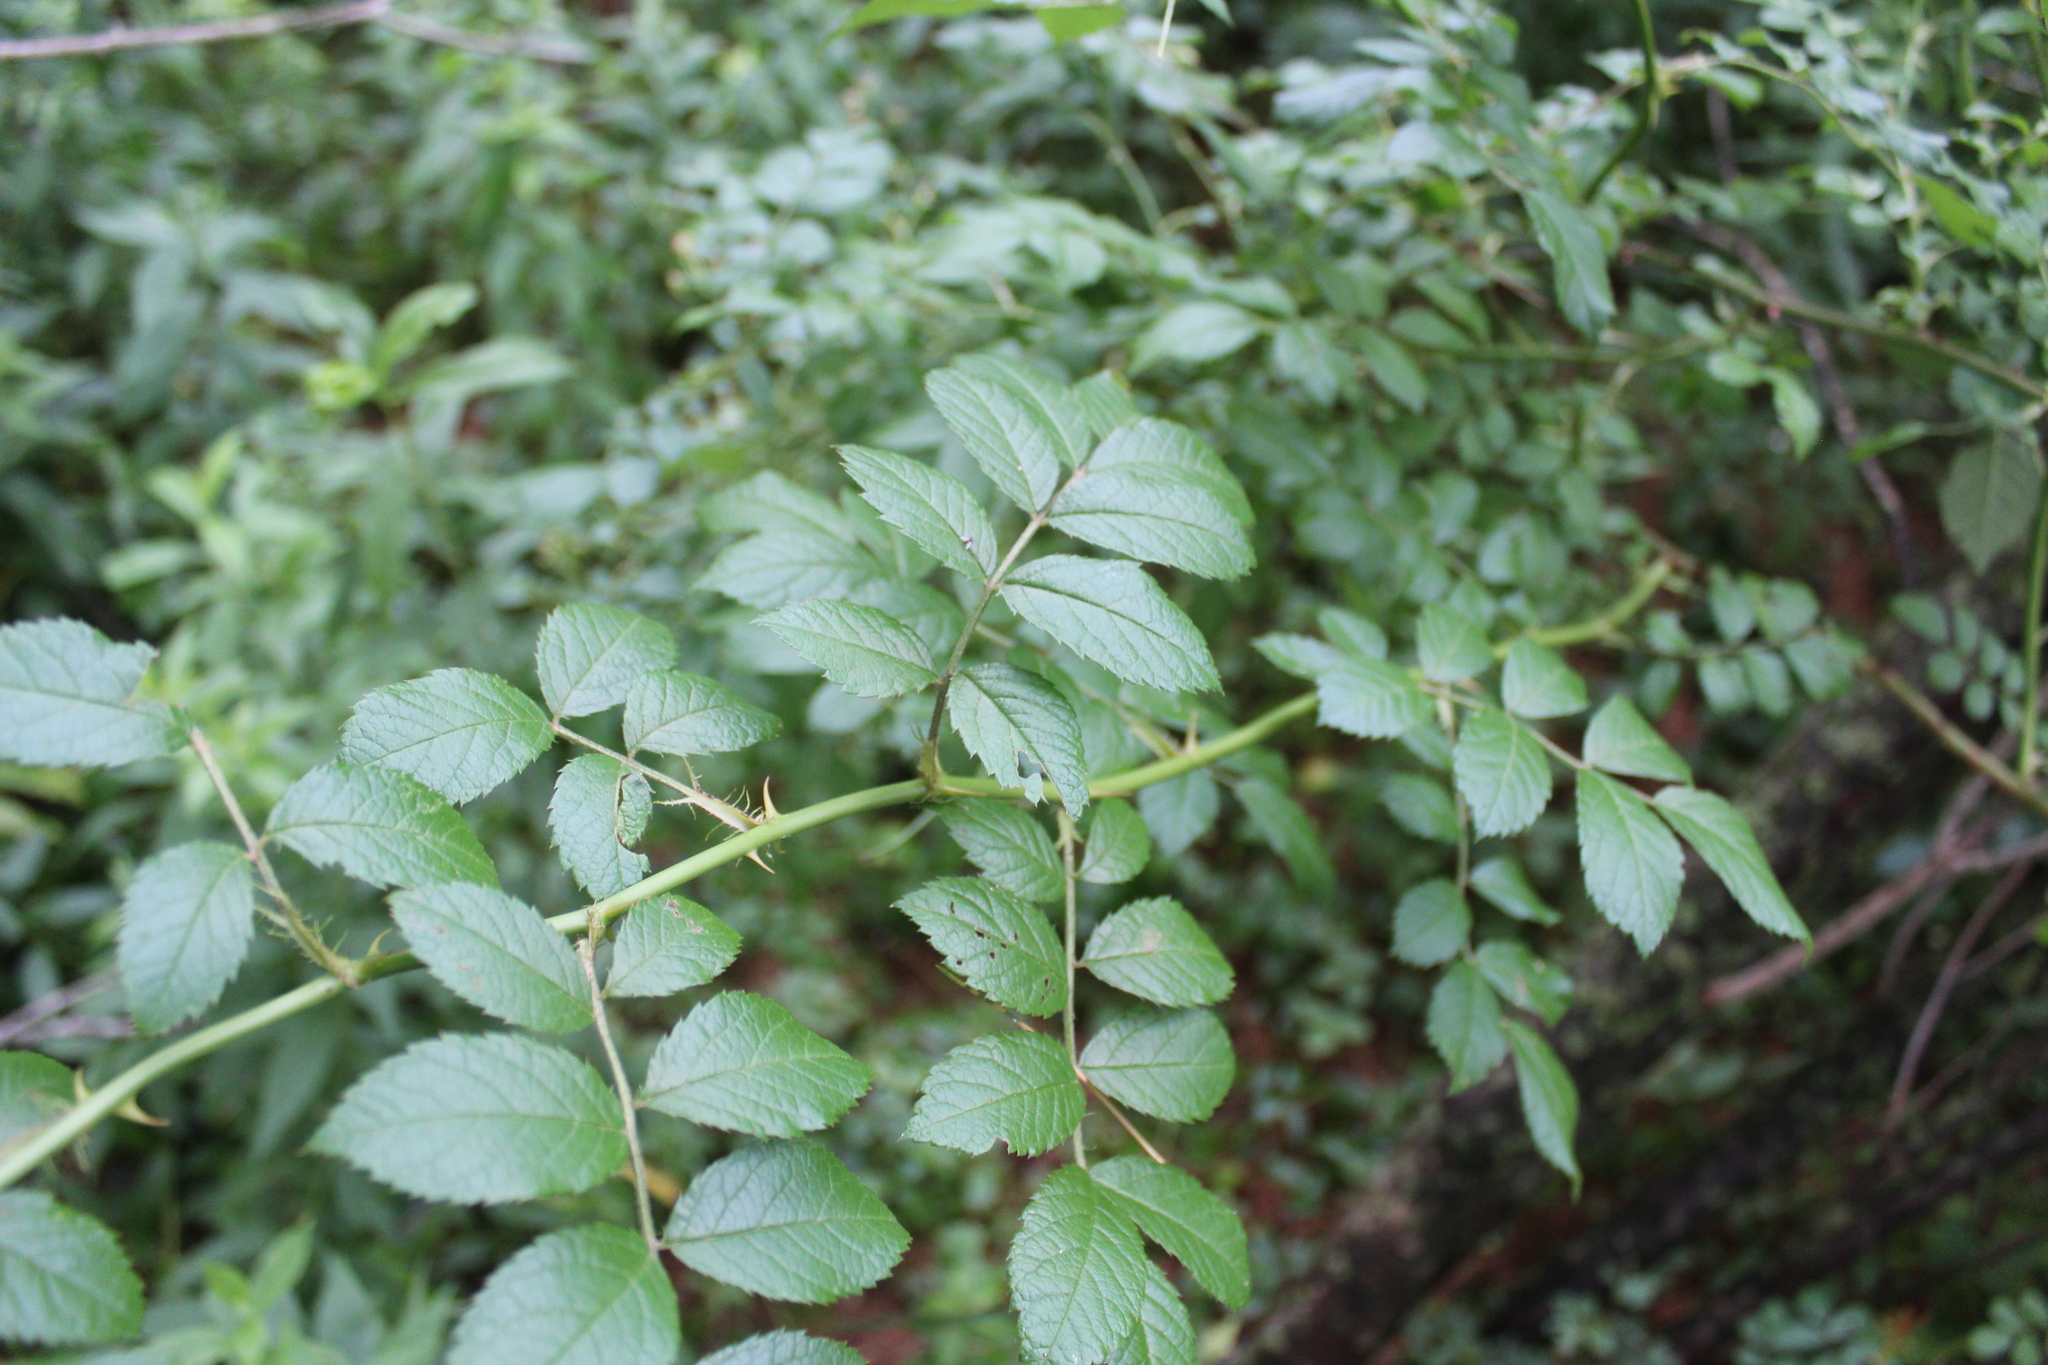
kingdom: Plantae
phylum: Tracheophyta
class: Magnoliopsida
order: Rosales
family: Rosaceae
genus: Rosa
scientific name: Rosa multiflora
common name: Multiflora rose
